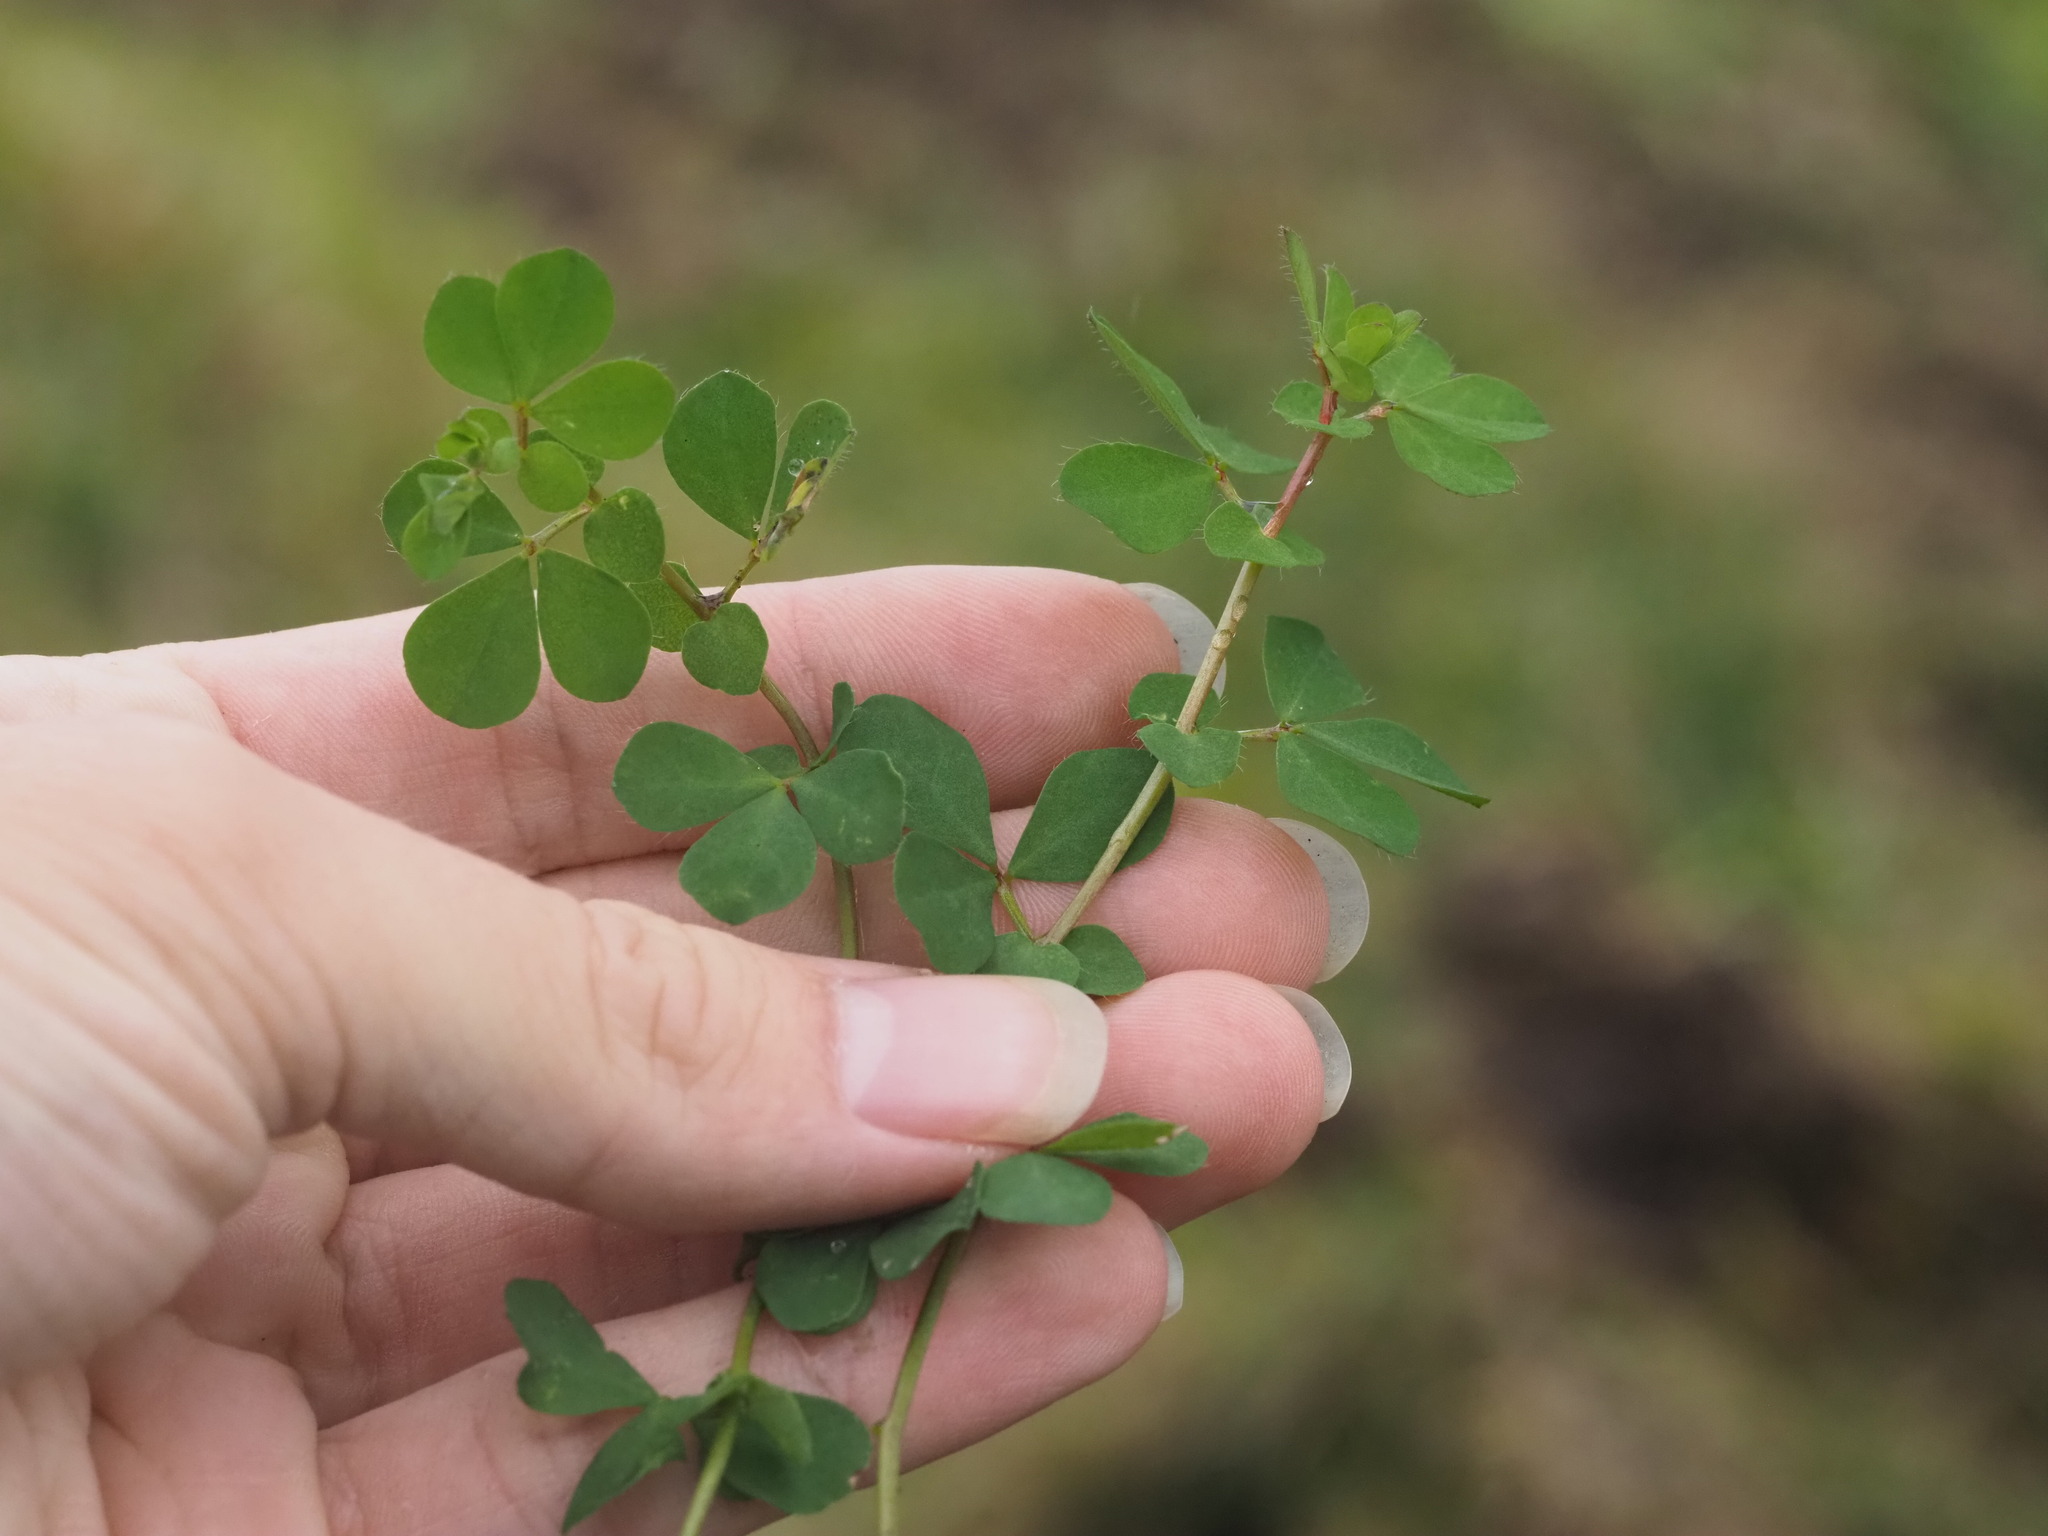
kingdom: Plantae
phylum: Tracheophyta
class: Magnoliopsida
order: Fabales
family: Fabaceae
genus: Lotus
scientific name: Lotus
